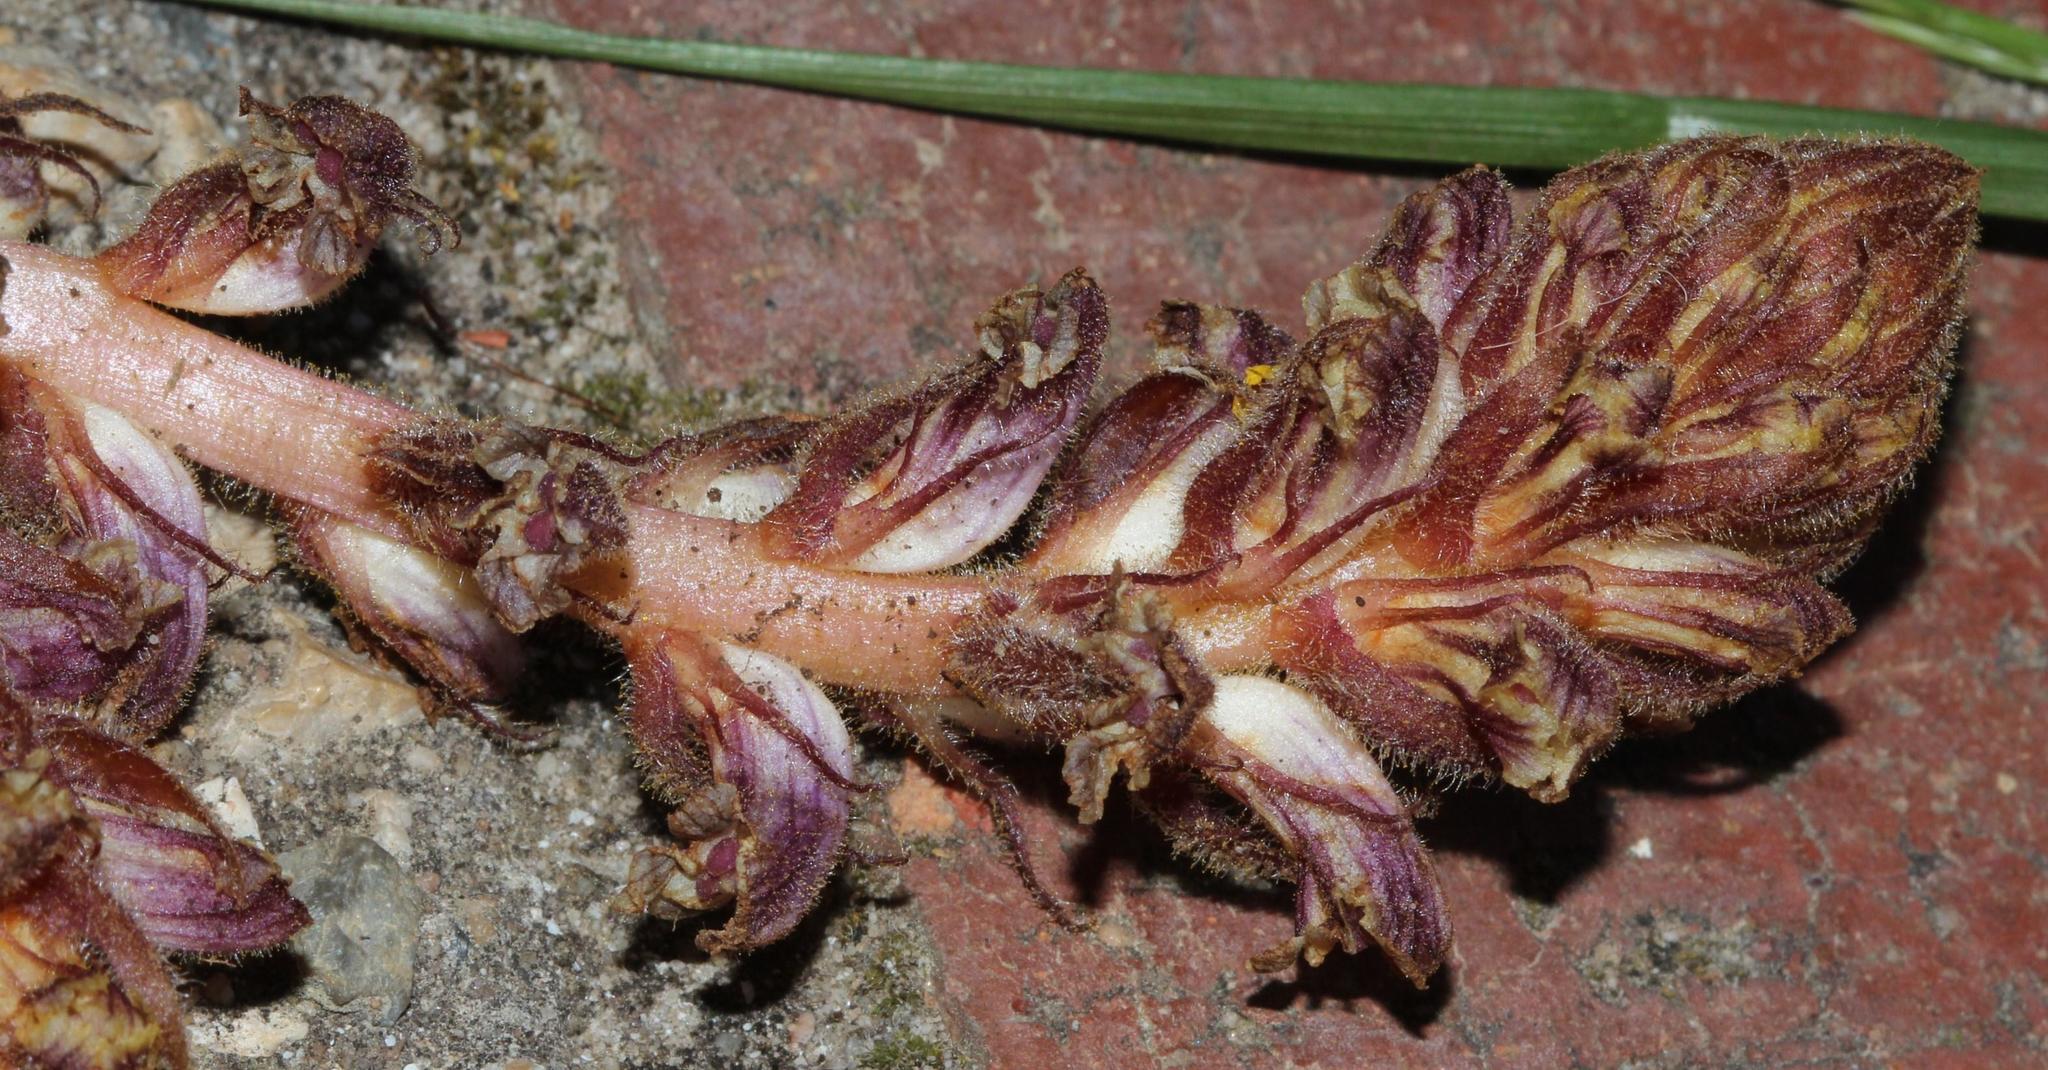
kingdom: Plantae
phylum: Tracheophyta
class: Magnoliopsida
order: Lamiales
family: Orobanchaceae
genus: Orobanche
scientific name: Orobanche minor
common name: Common broomrape
